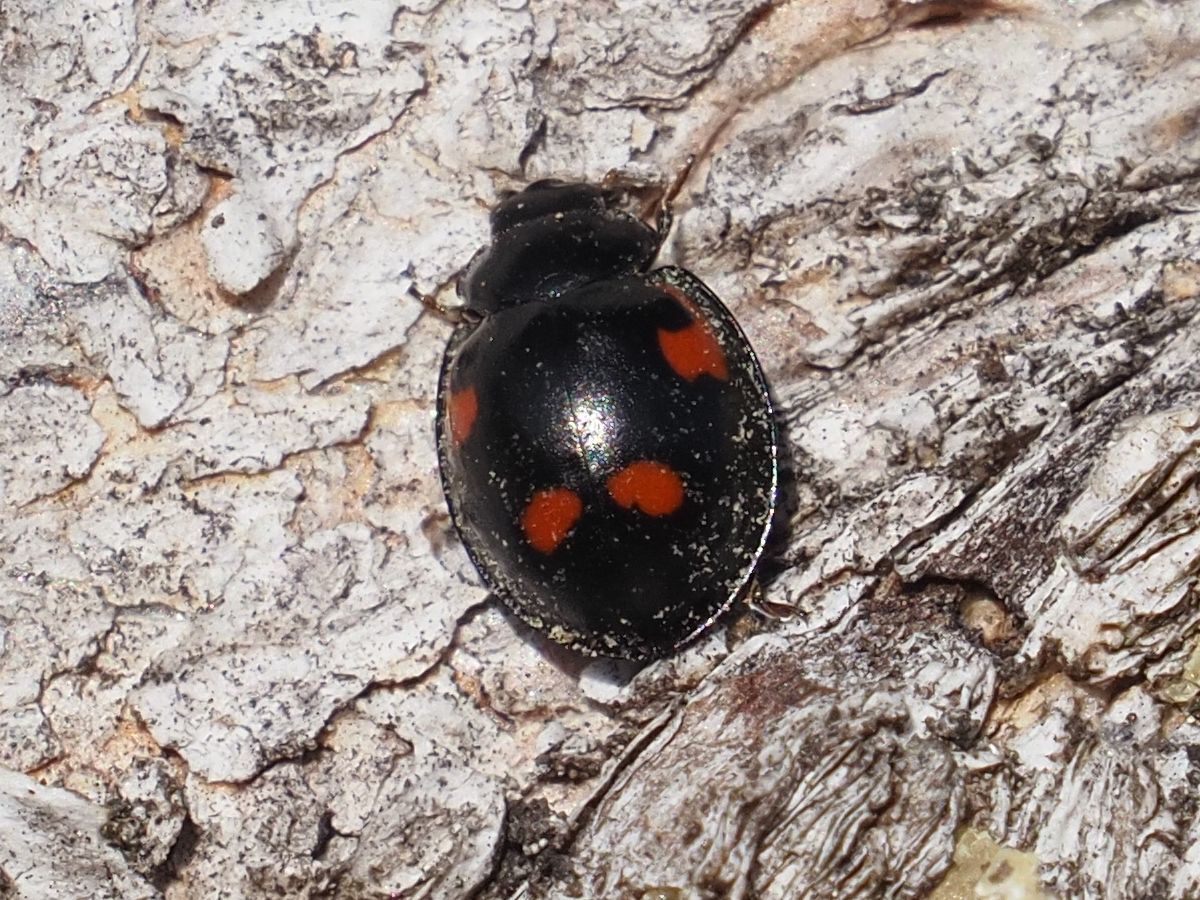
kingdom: Animalia
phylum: Arthropoda
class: Insecta
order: Coleoptera
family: Coccinellidae
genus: Brumus
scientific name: Brumus quadripustulatus
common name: Ladybird beetle
